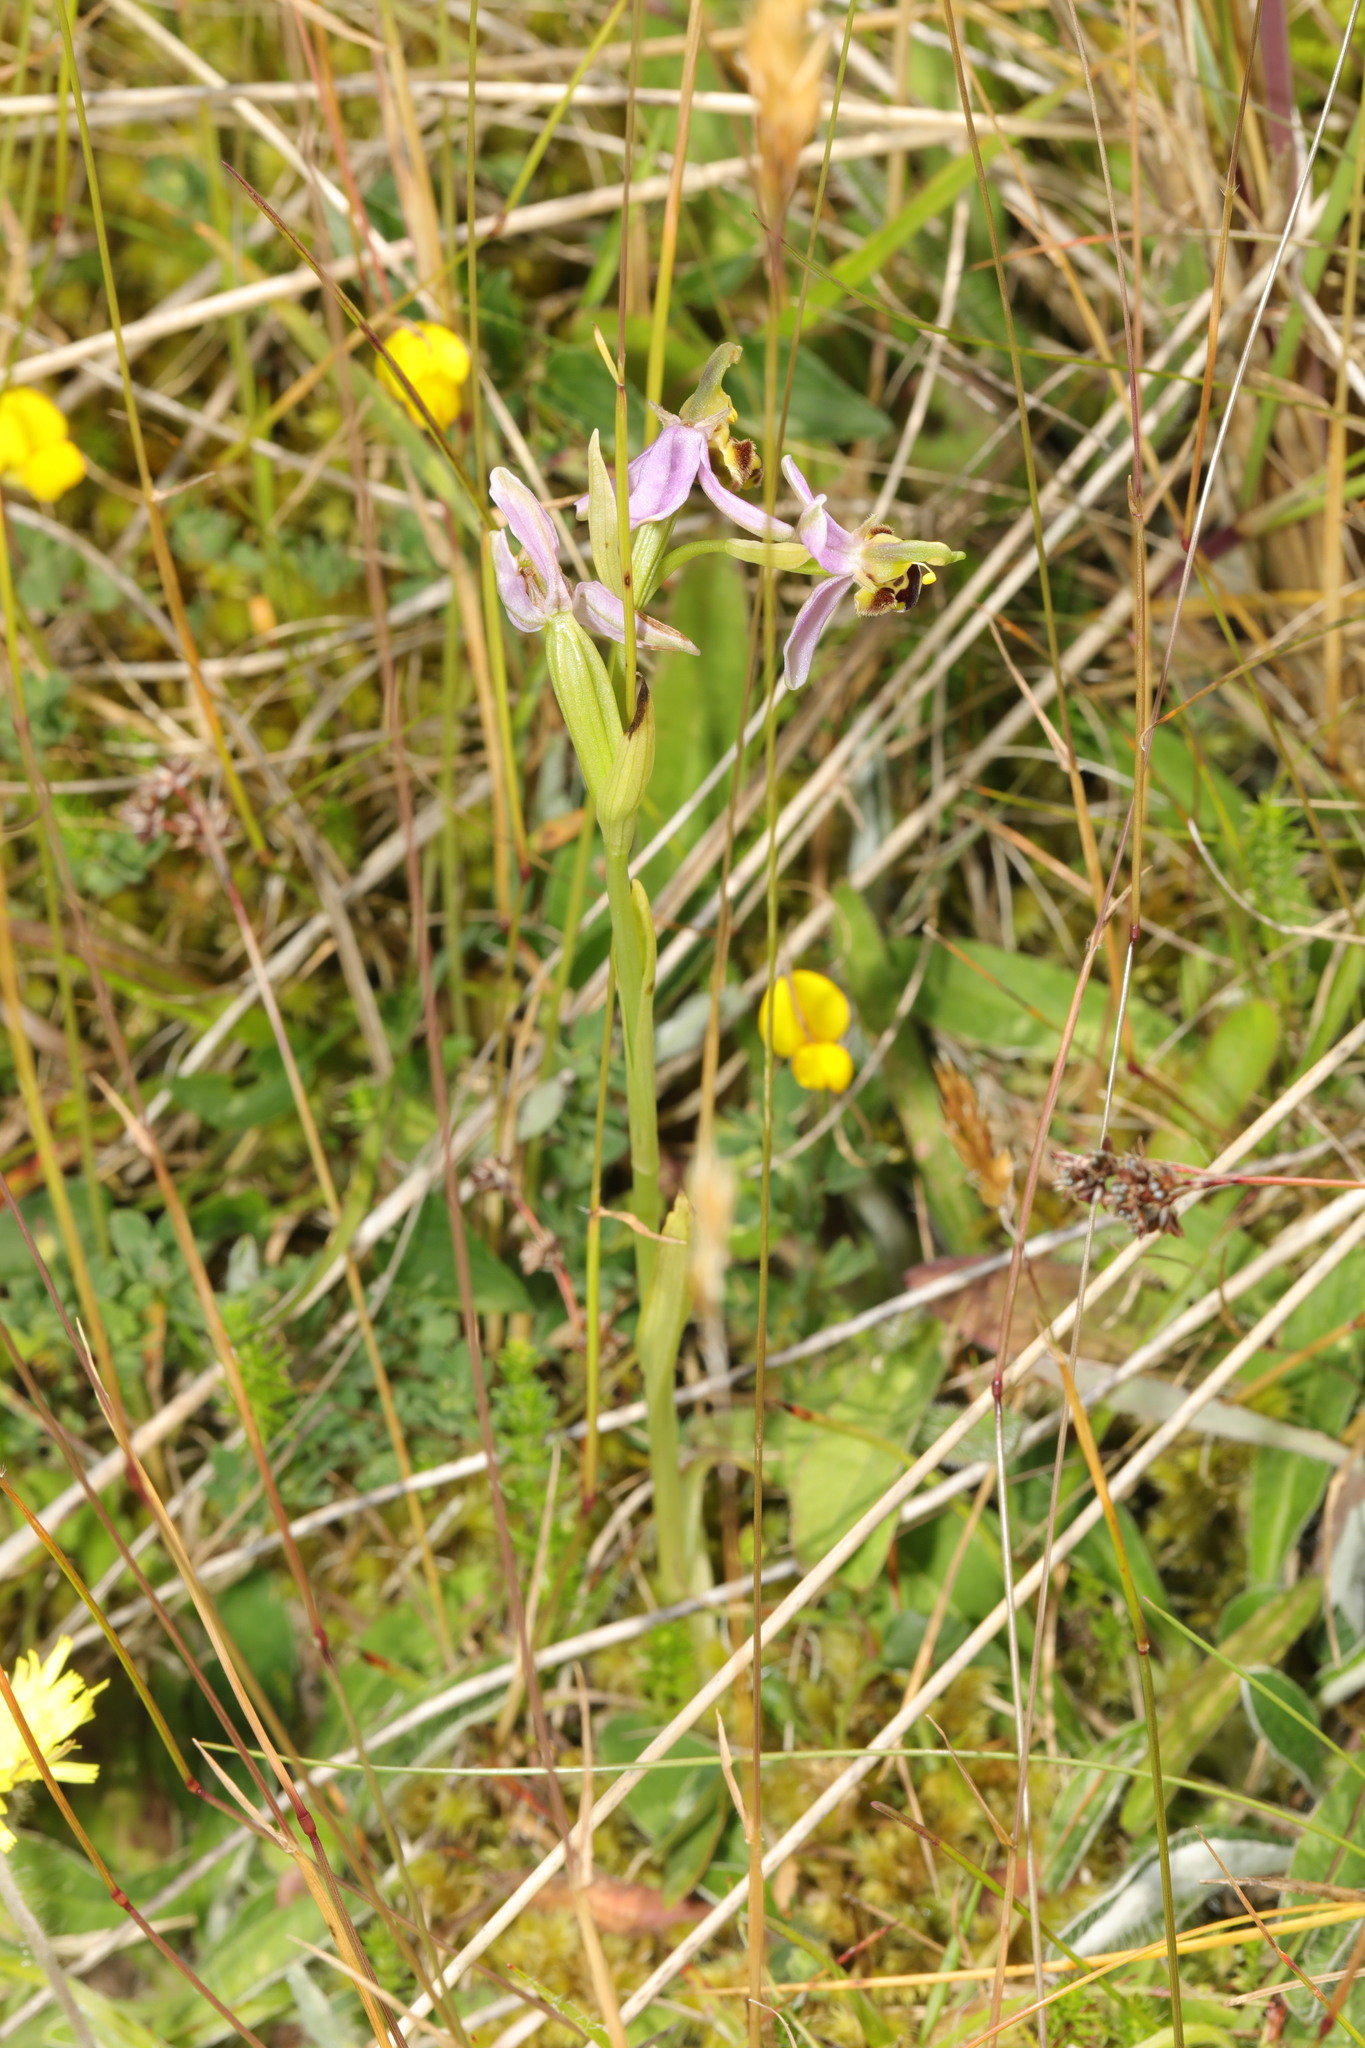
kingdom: Plantae
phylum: Tracheophyta
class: Liliopsida
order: Asparagales
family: Orchidaceae
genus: Ophrys
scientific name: Ophrys apifera
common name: Bee orchid
